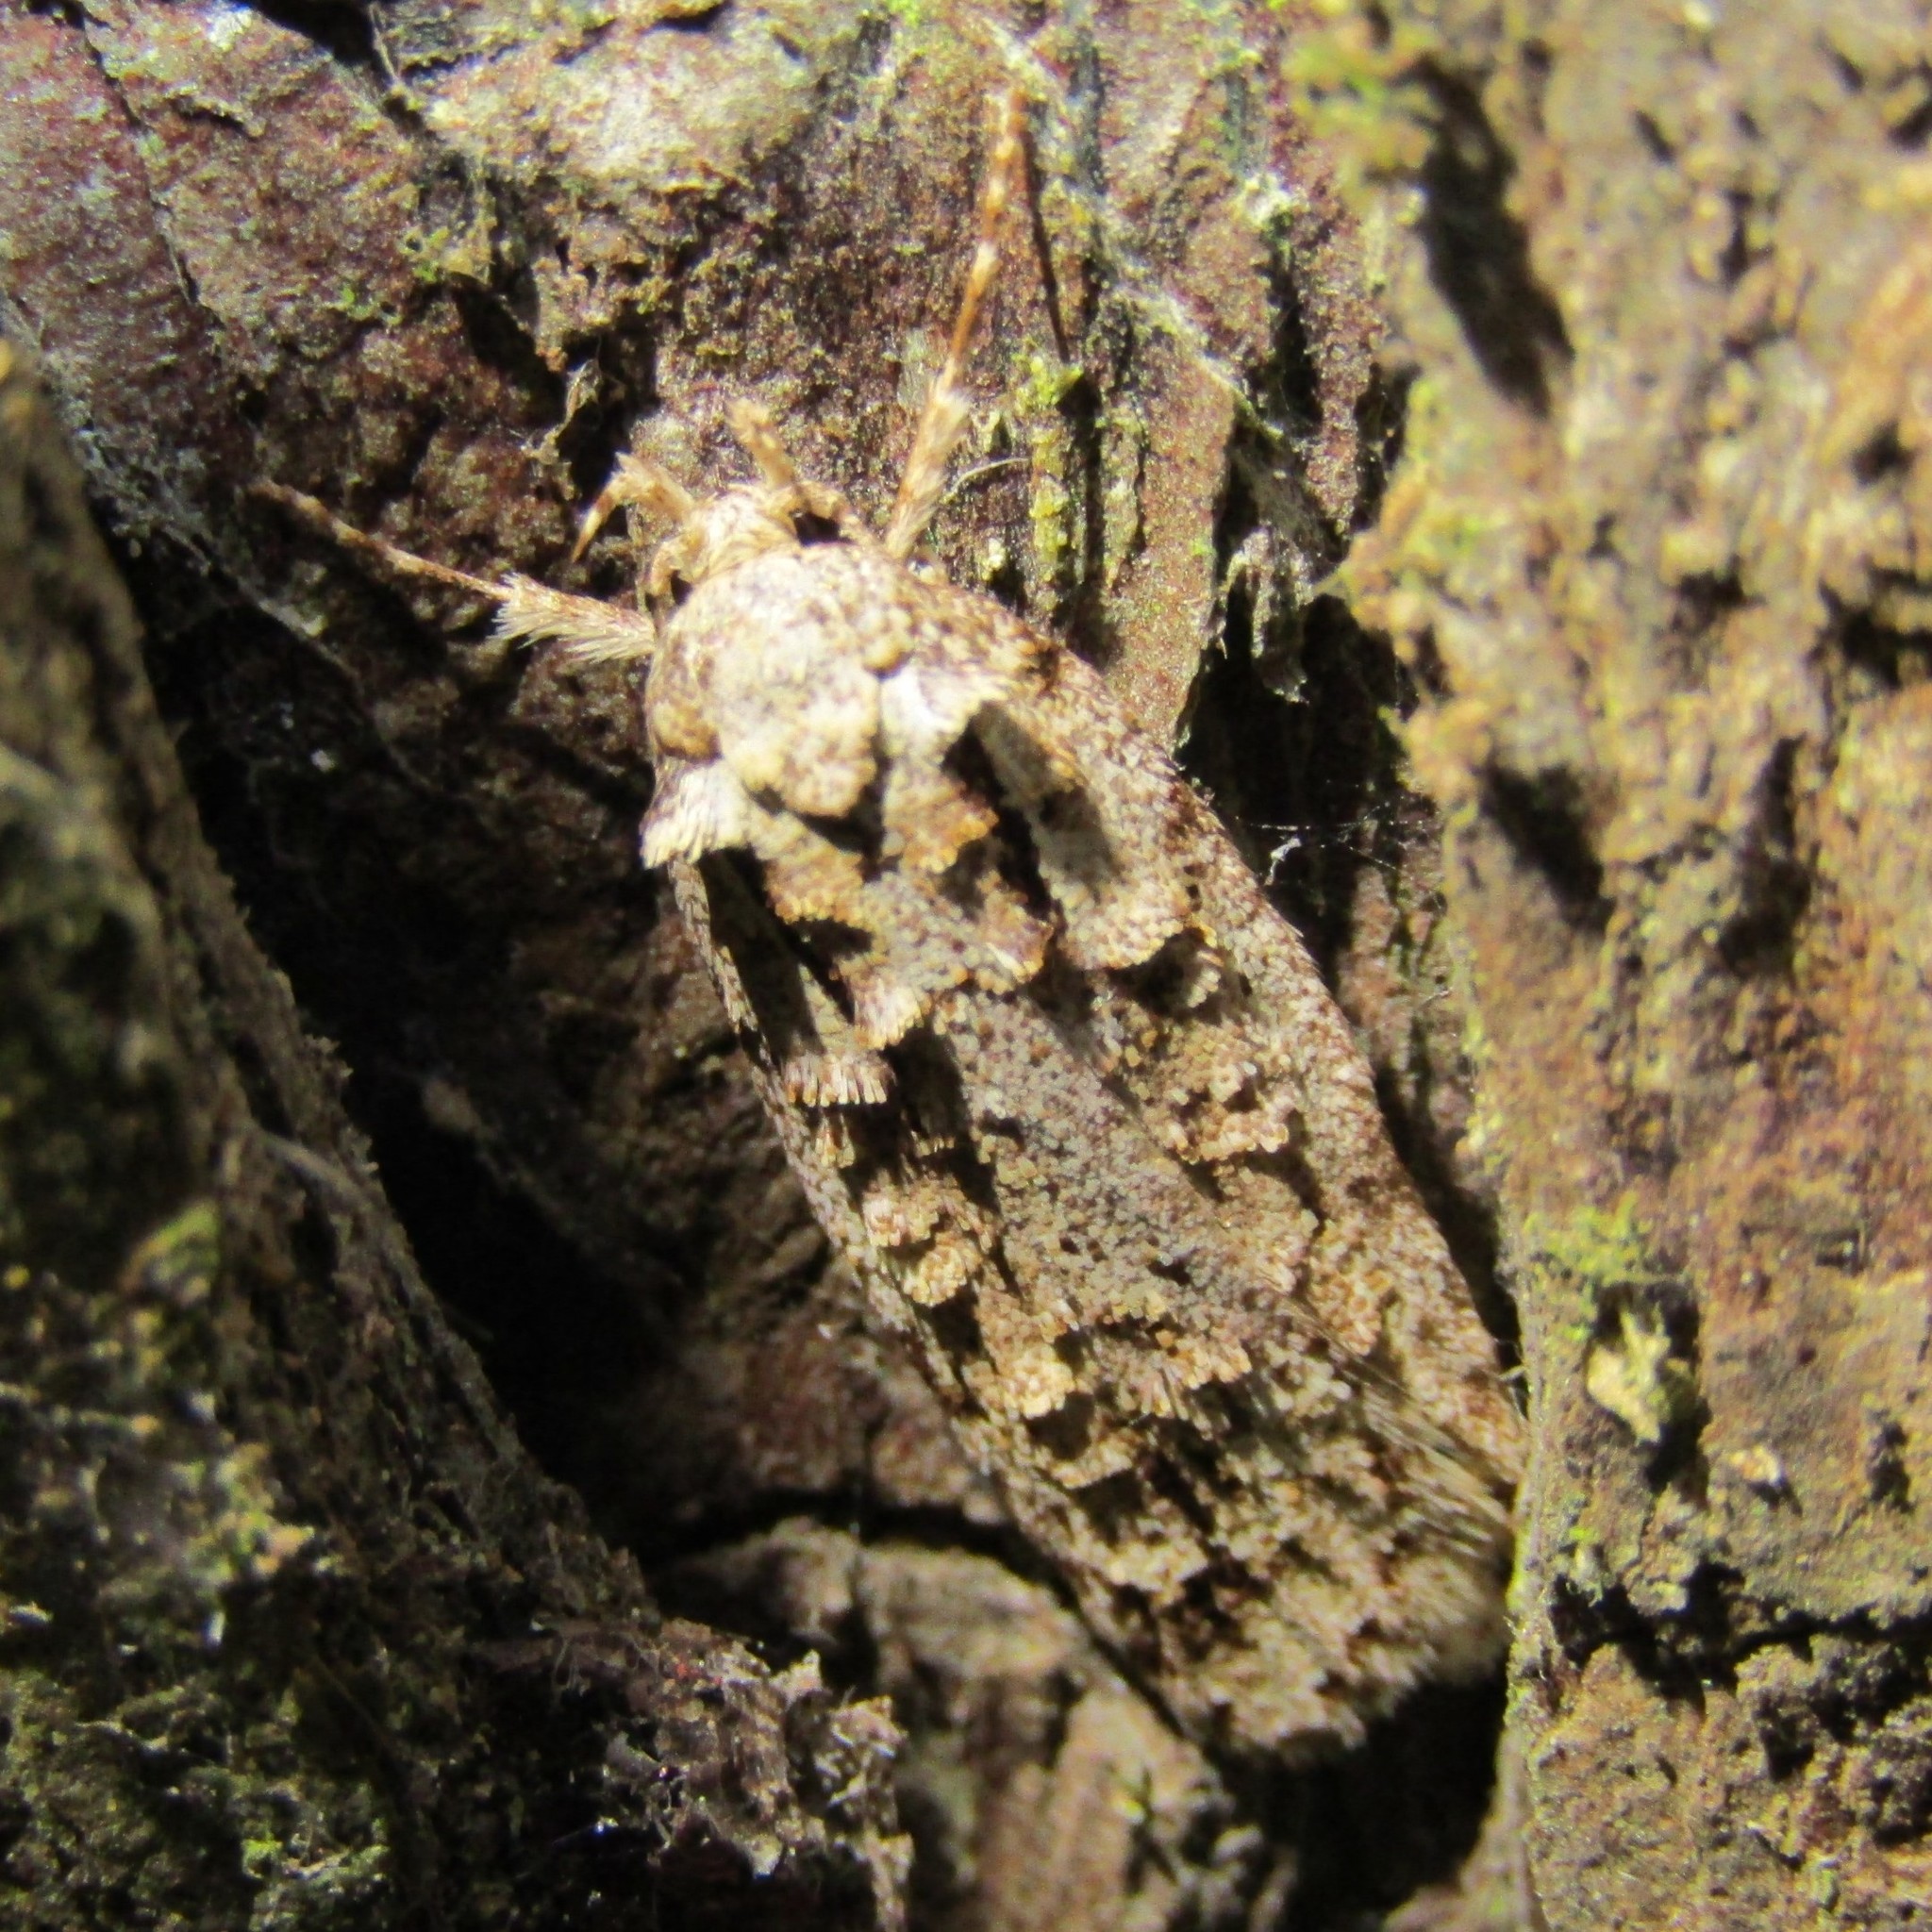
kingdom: Animalia
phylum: Arthropoda
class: Insecta
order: Lepidoptera
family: Oecophoridae
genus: Izatha
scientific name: Izatha attactella
